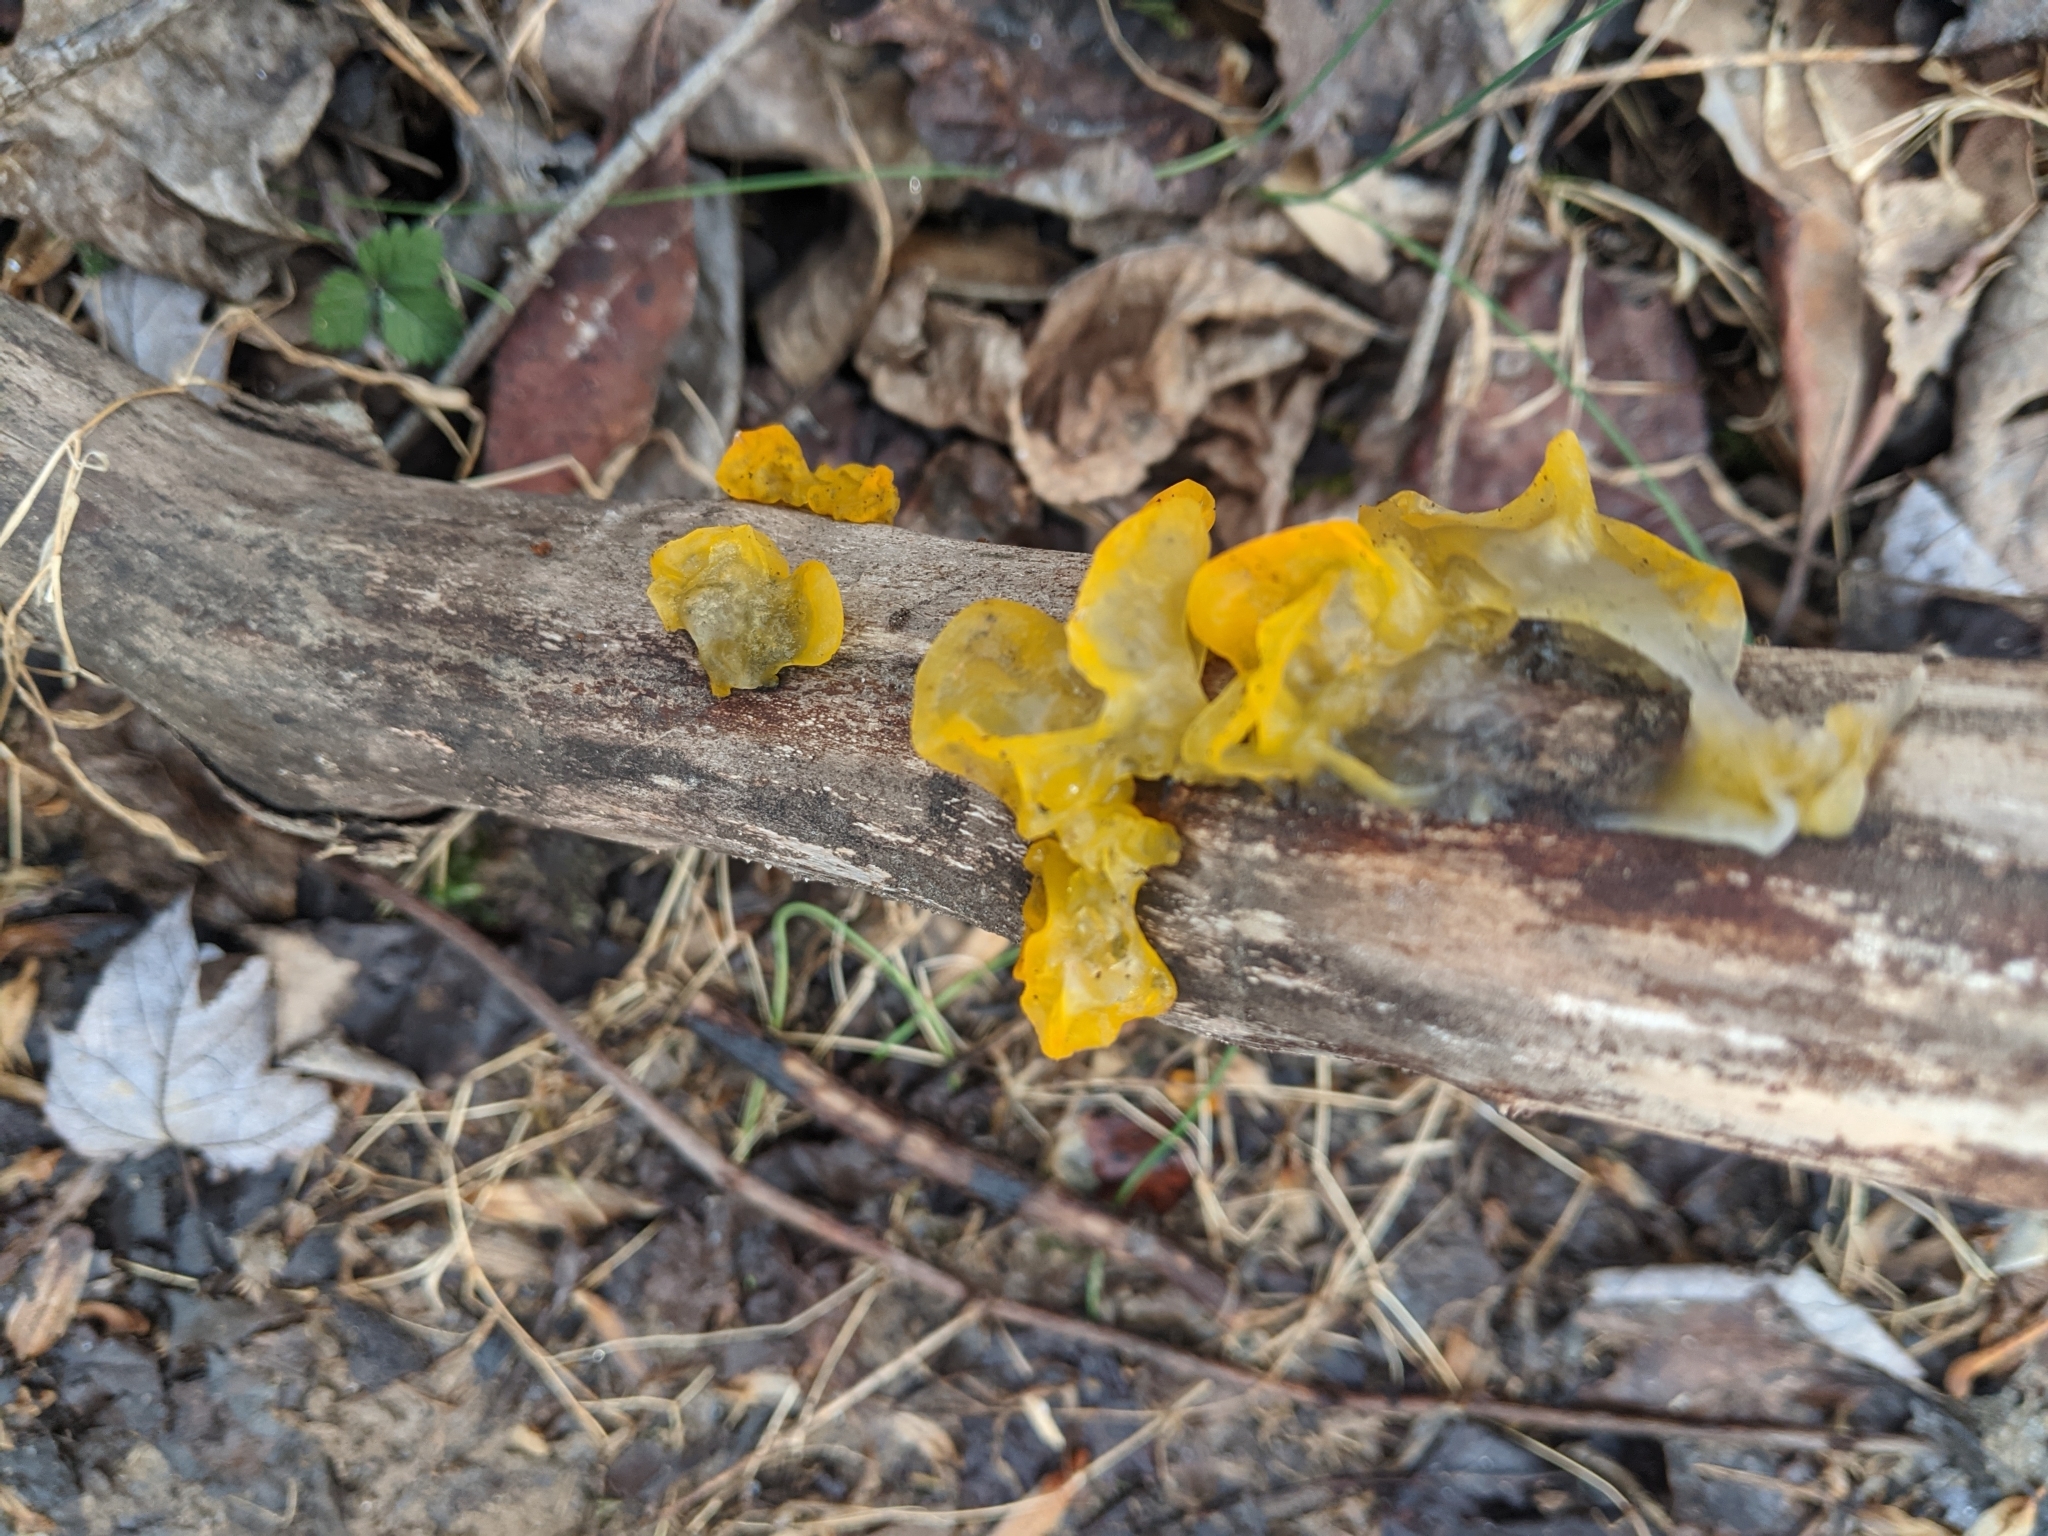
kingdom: Fungi
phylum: Basidiomycota
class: Tremellomycetes
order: Tremellales
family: Tremellaceae
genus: Tremella
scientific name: Tremella mesenterica
